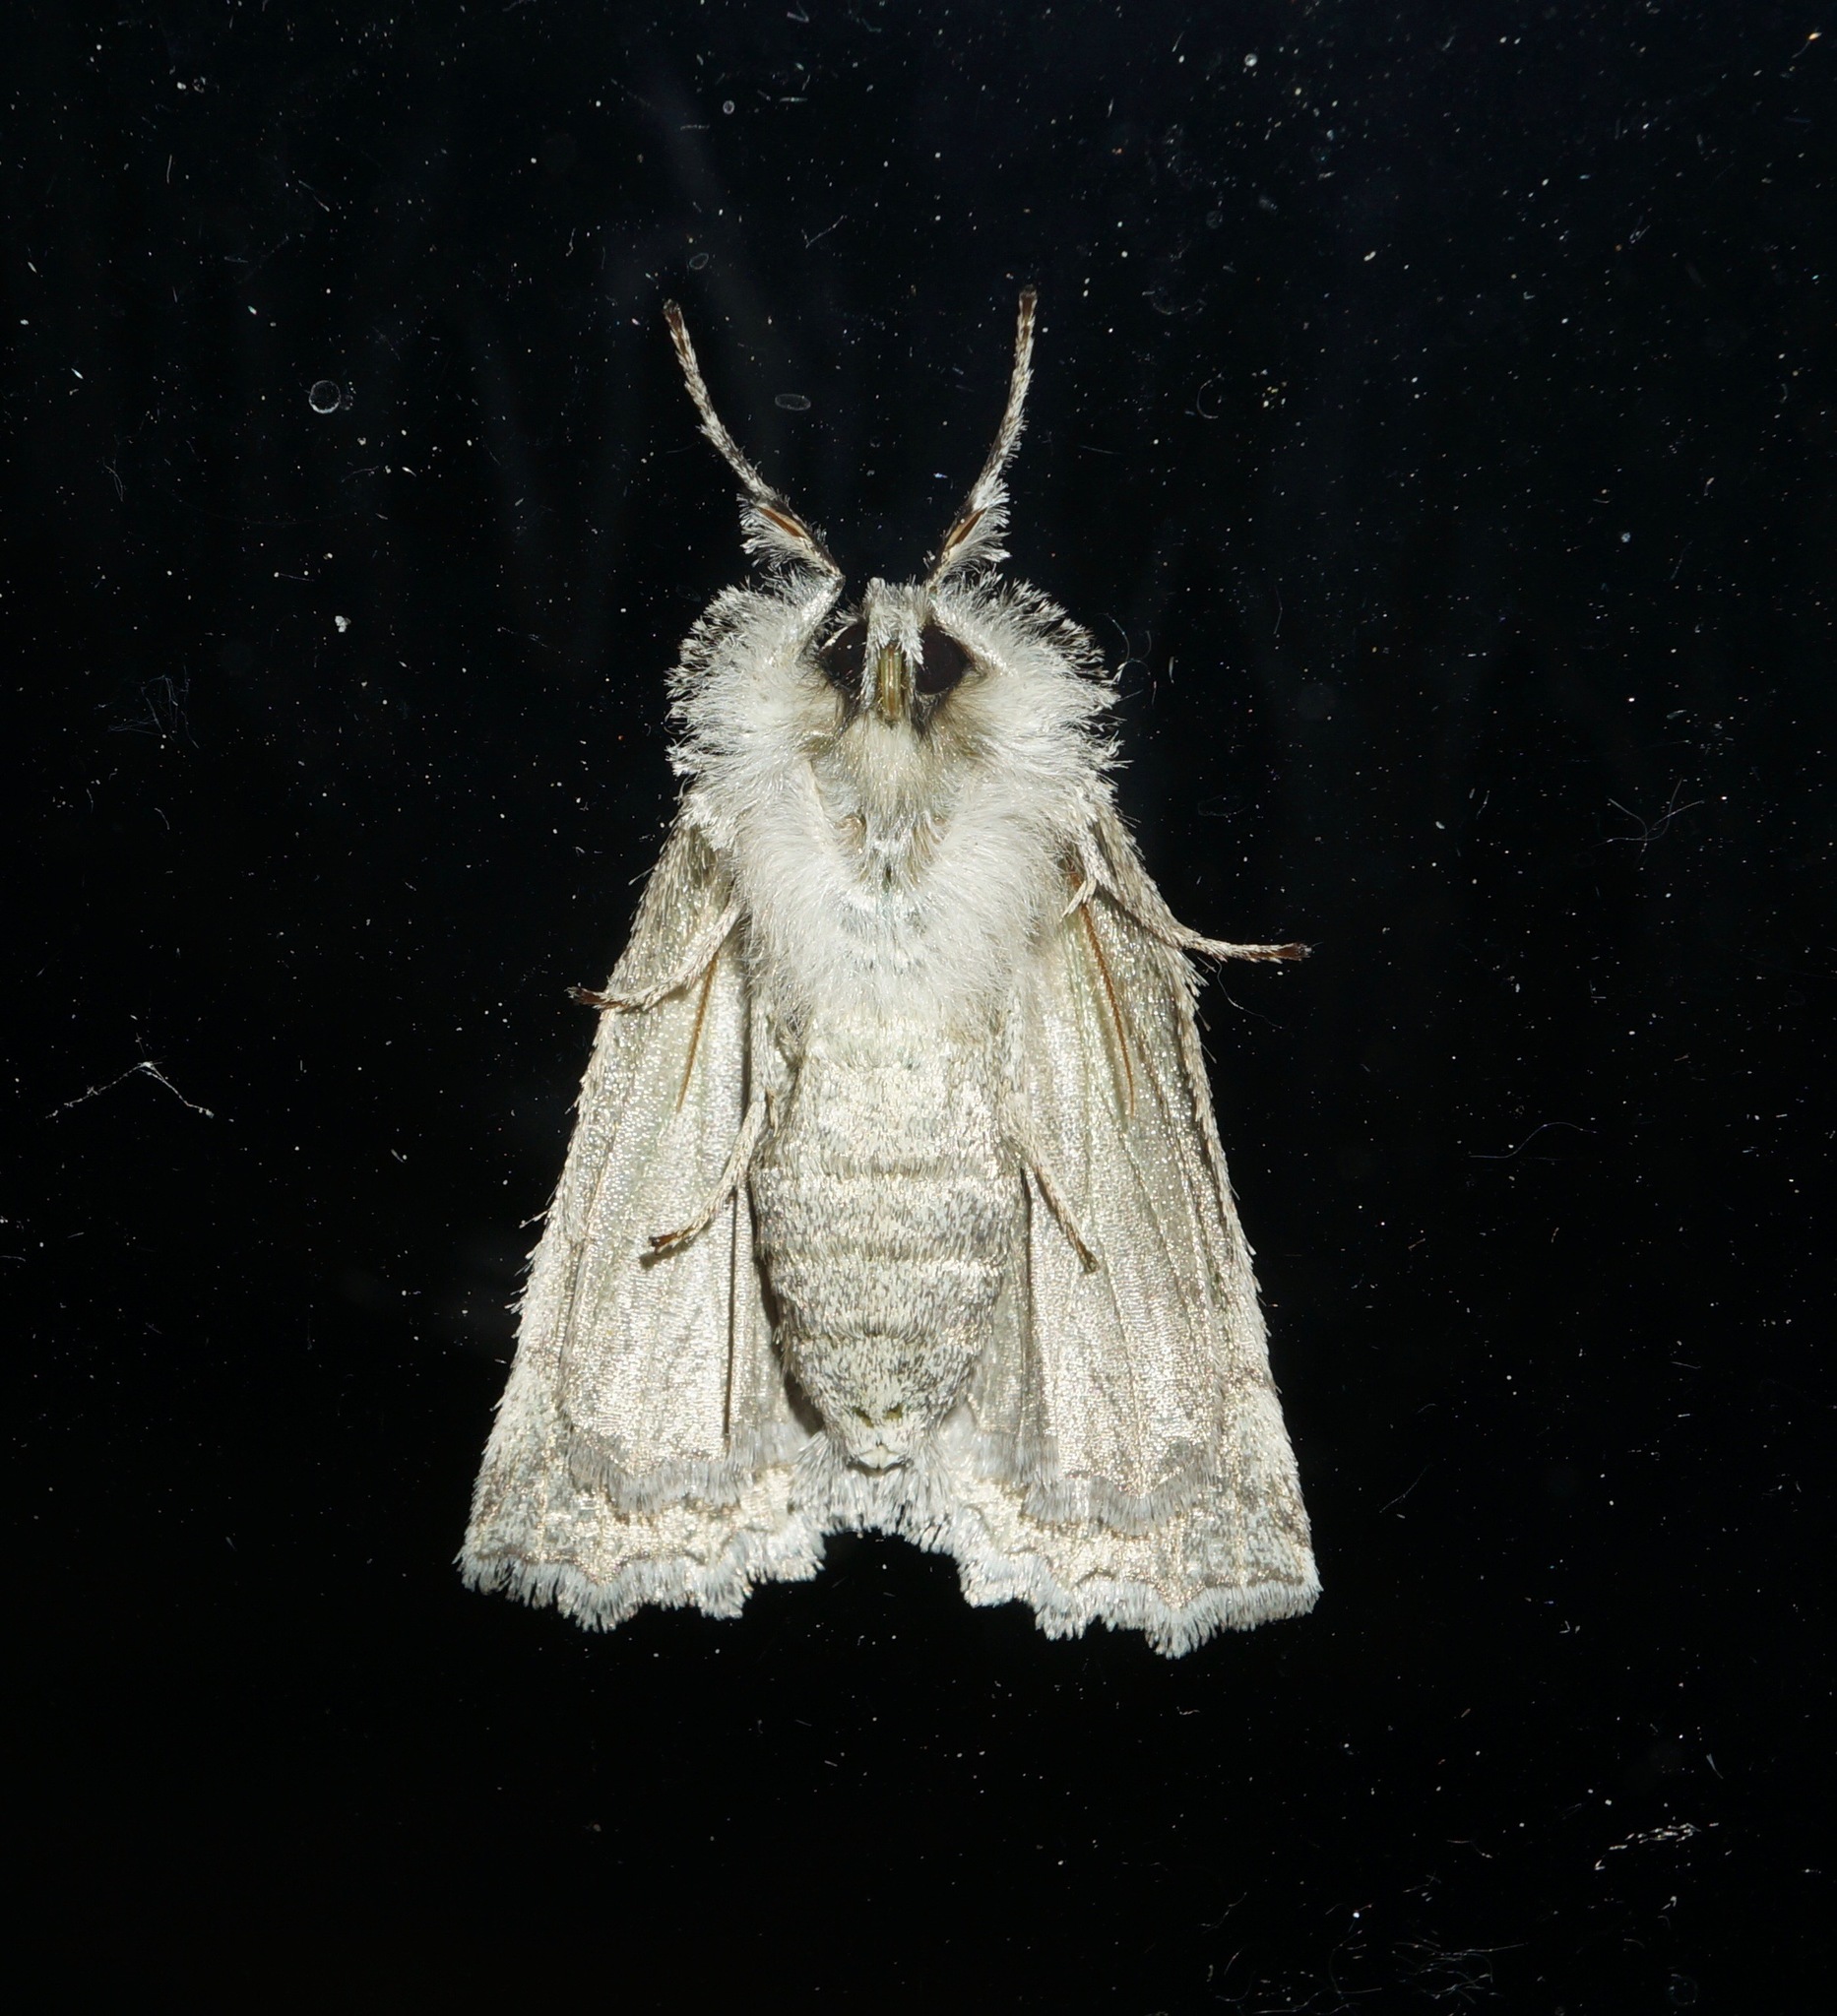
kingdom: Animalia
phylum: Arthropoda
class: Insecta
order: Lepidoptera
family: Geometridae
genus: Declana
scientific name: Declana floccosa
